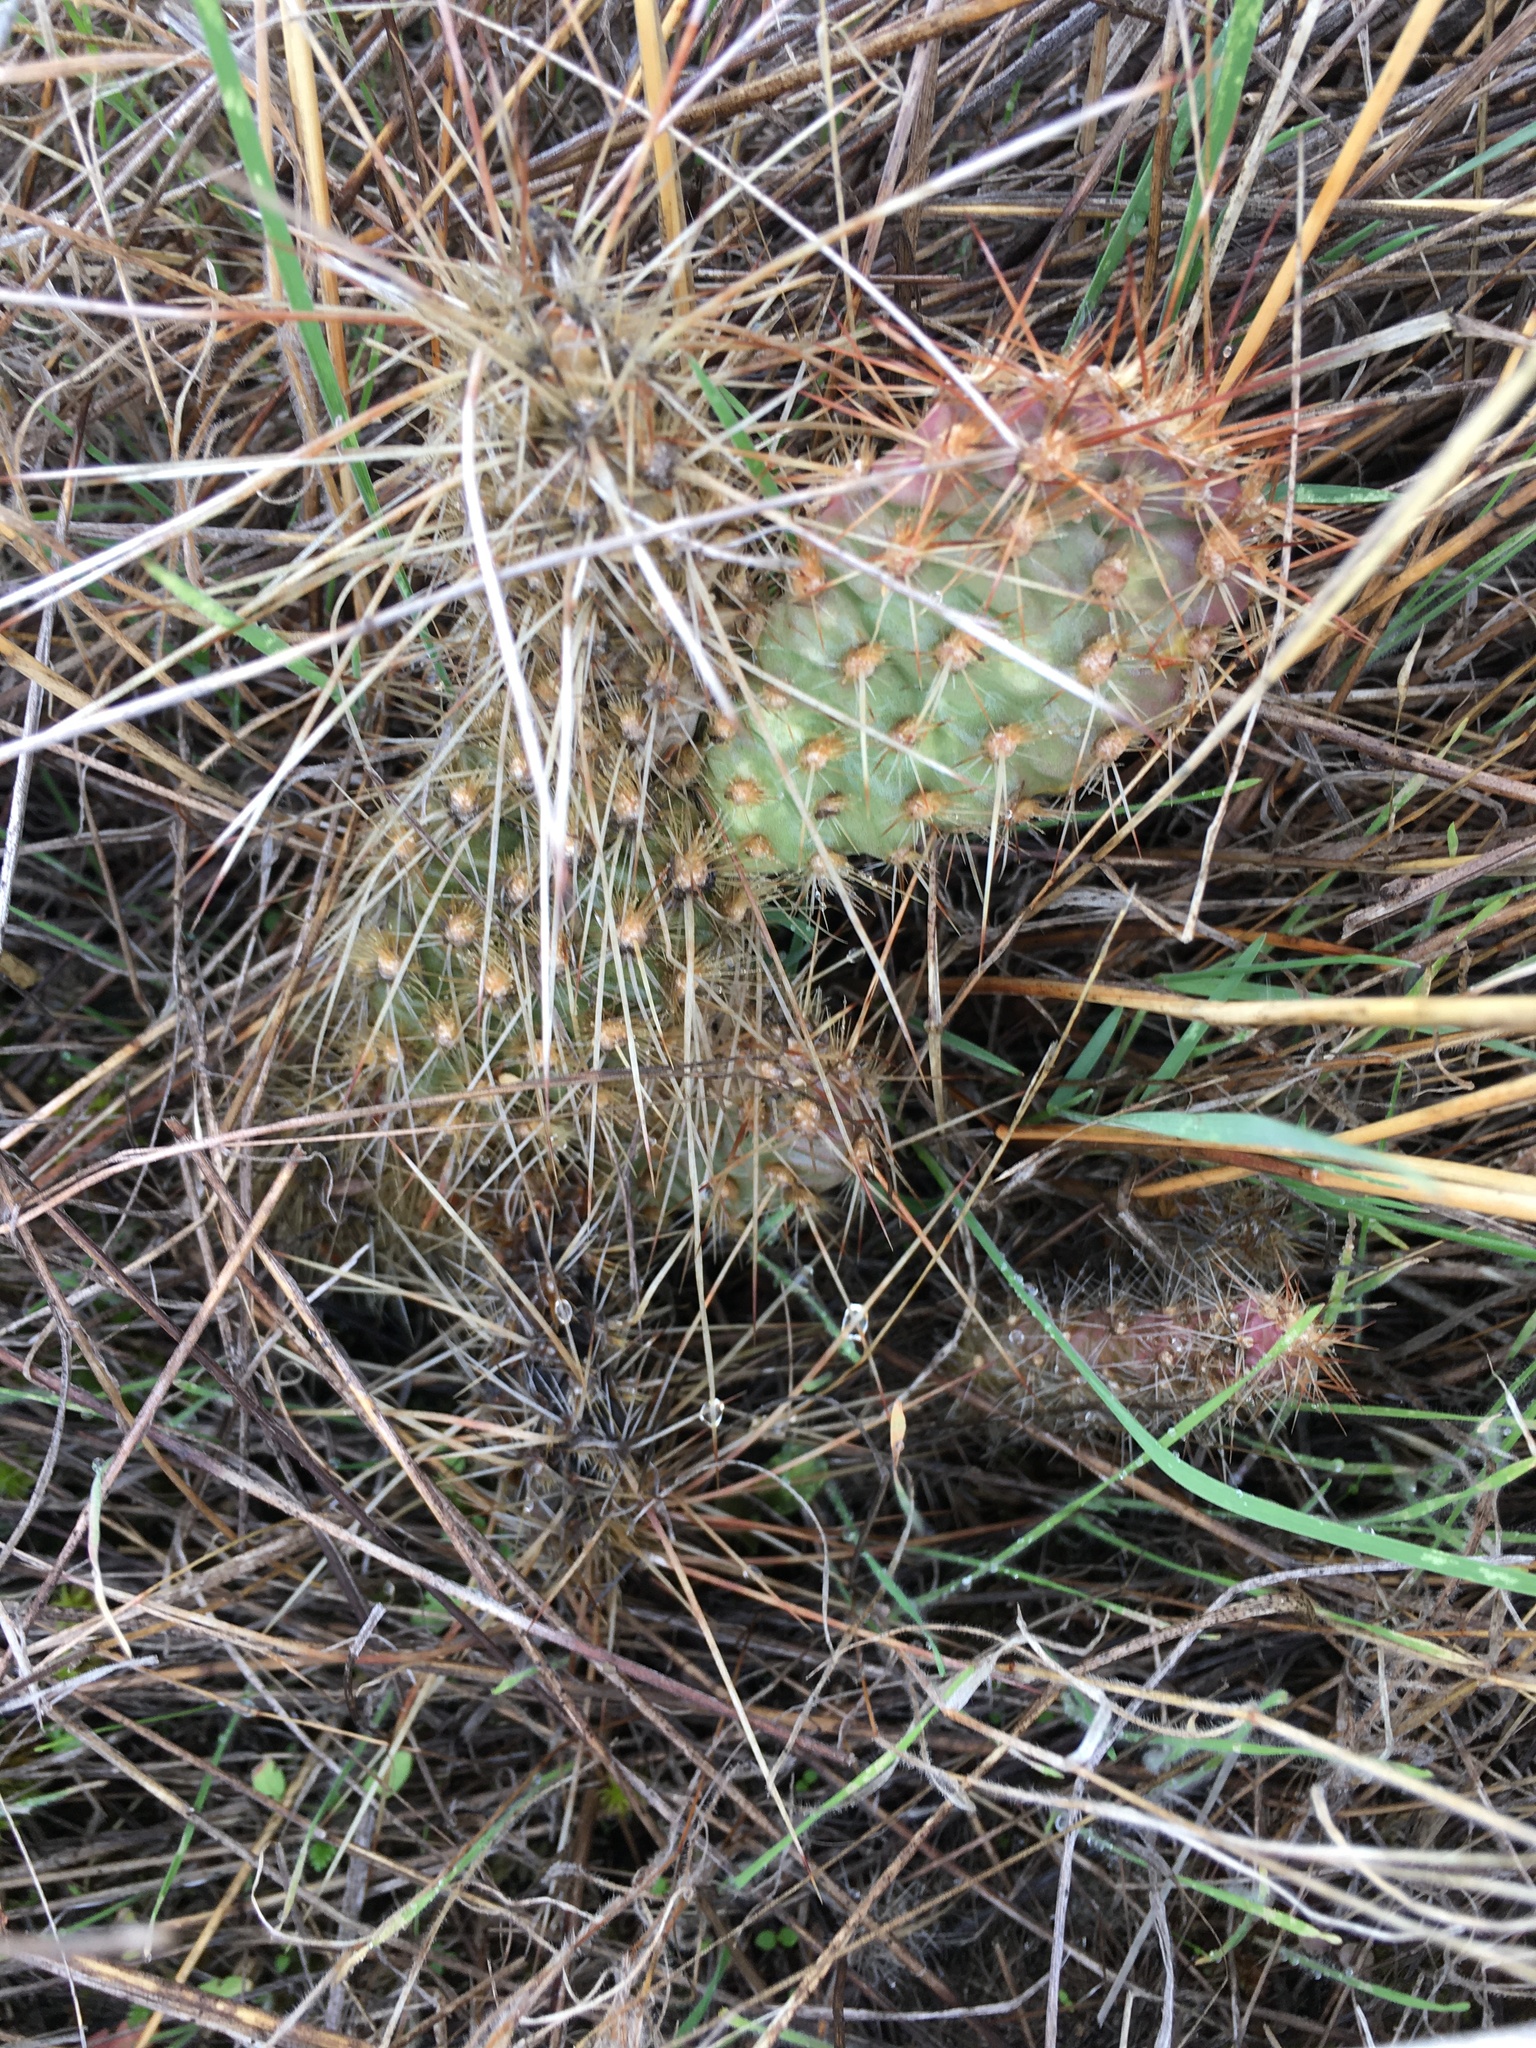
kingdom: Plantae
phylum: Tracheophyta
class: Magnoliopsida
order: Caryophyllales
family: Cactaceae
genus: Opuntia
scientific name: Opuntia polyacantha
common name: Plains prickly-pear
